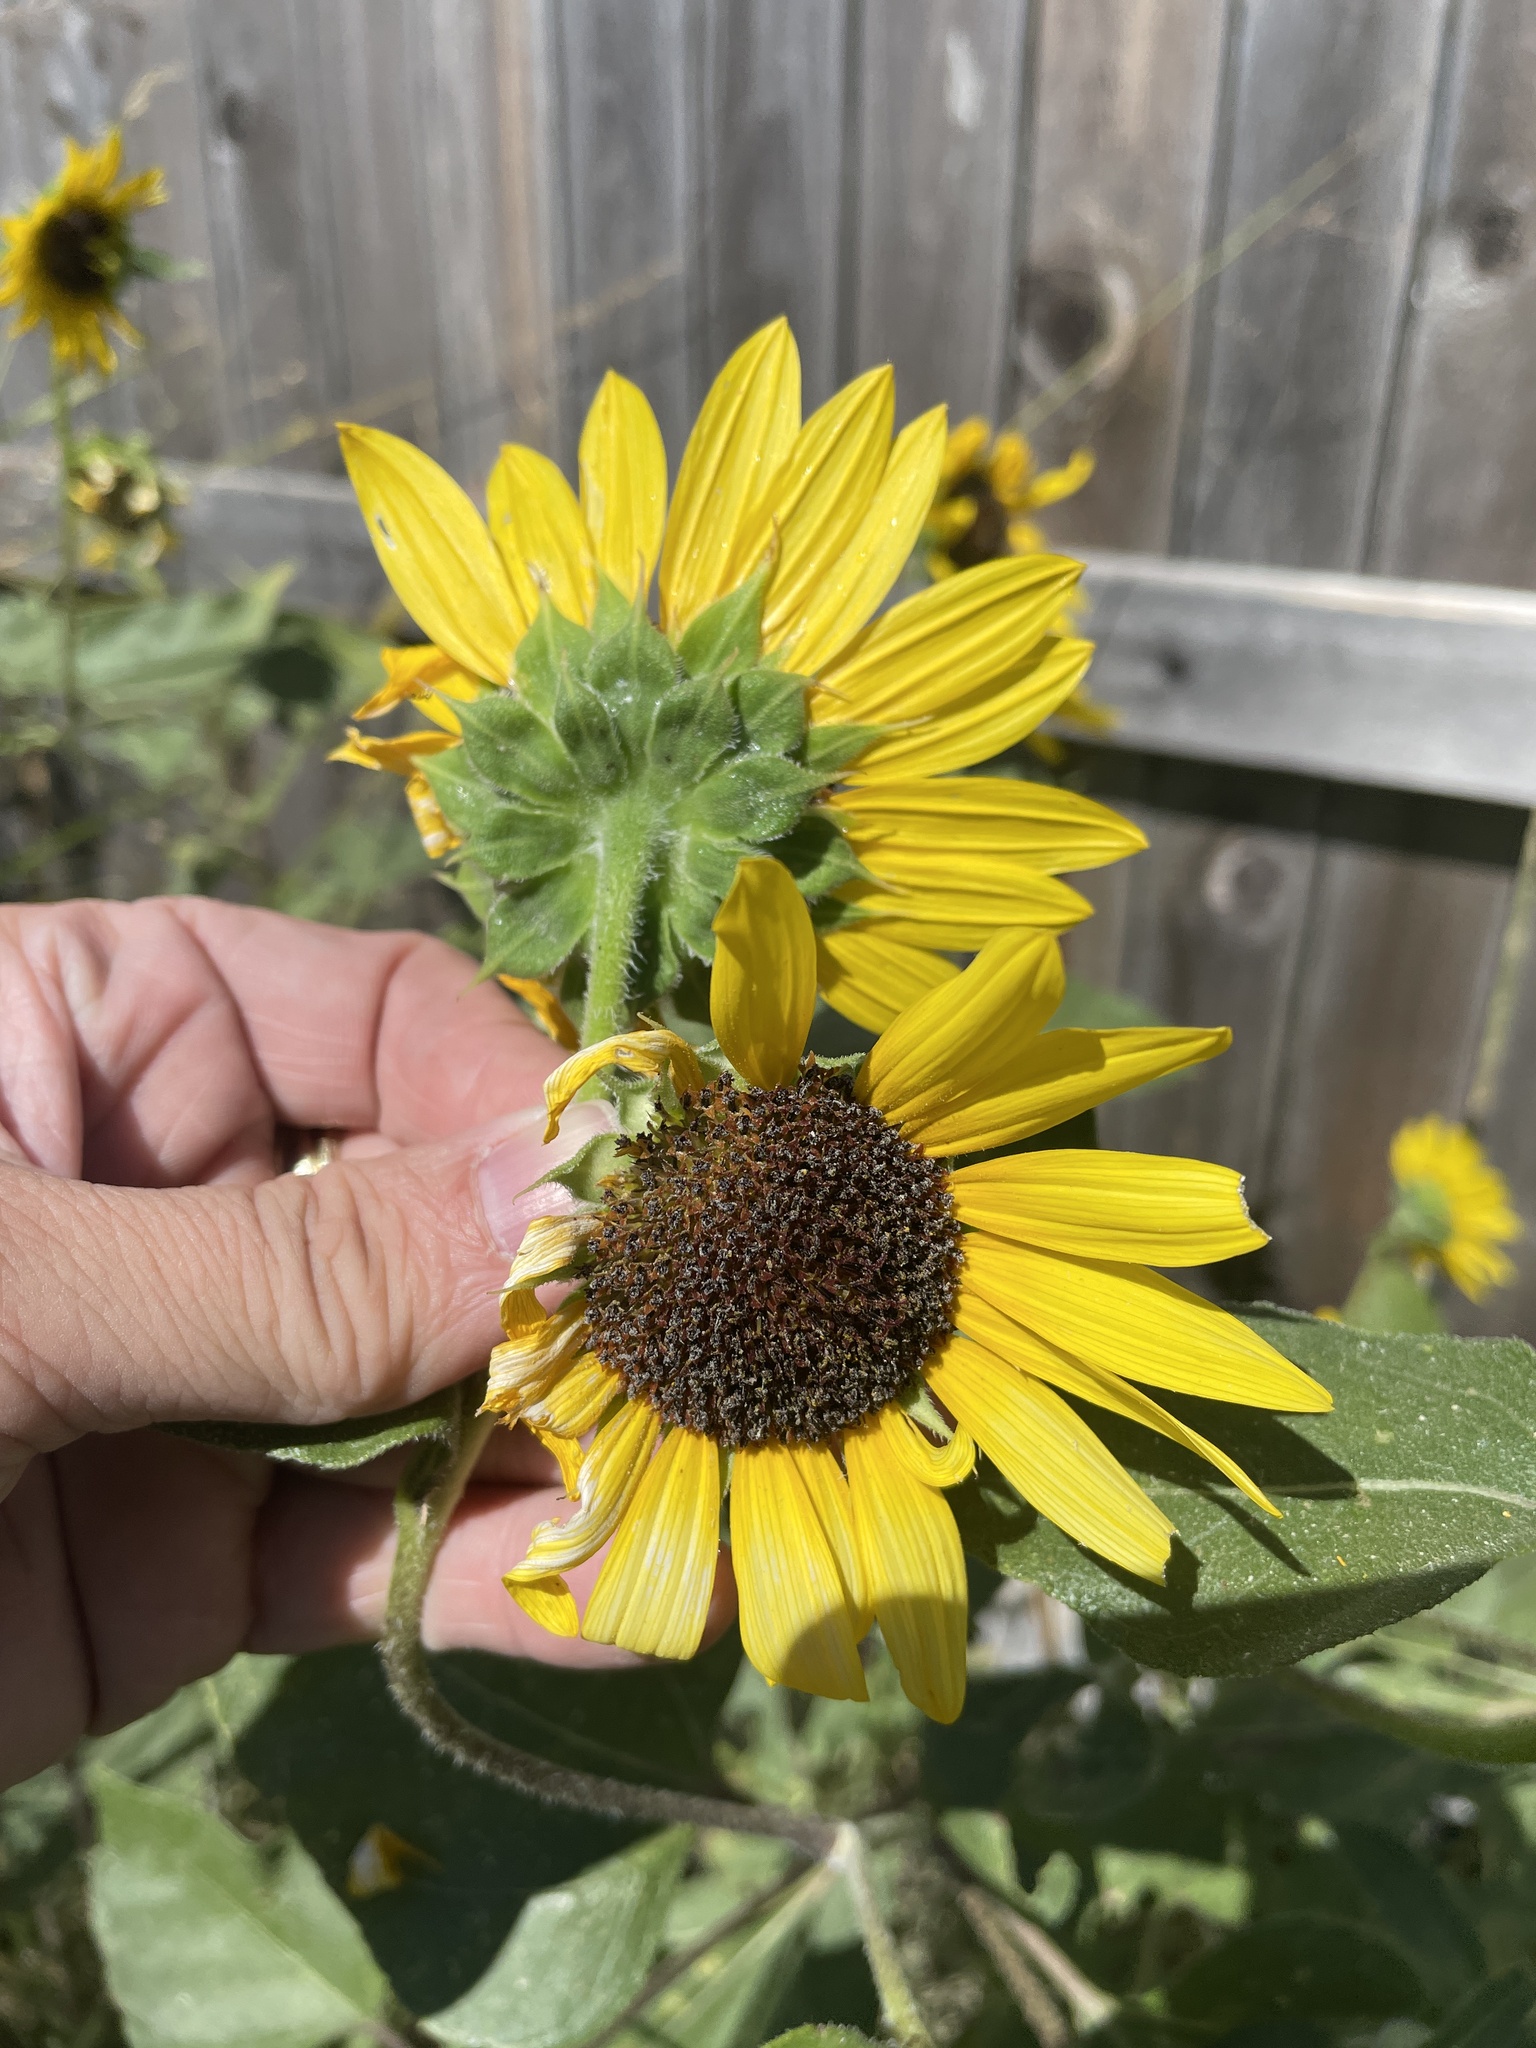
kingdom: Plantae
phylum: Tracheophyta
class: Magnoliopsida
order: Asterales
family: Asteraceae
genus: Helianthus
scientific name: Helianthus annuus
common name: Sunflower
